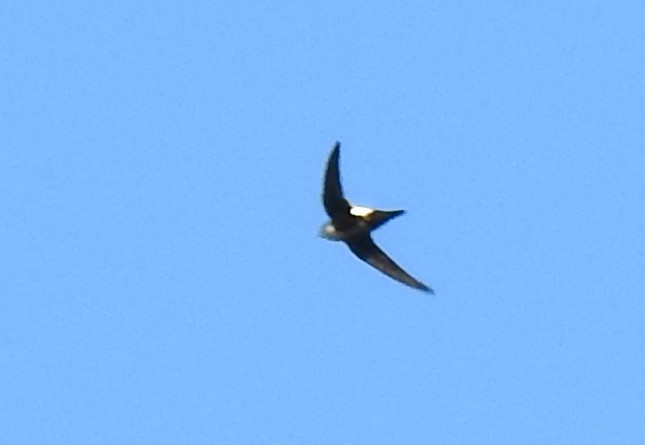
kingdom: Animalia
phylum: Chordata
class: Aves
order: Apodiformes
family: Apodidae
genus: Aeronautes
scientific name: Aeronautes saxatalis
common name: White-throated swift
